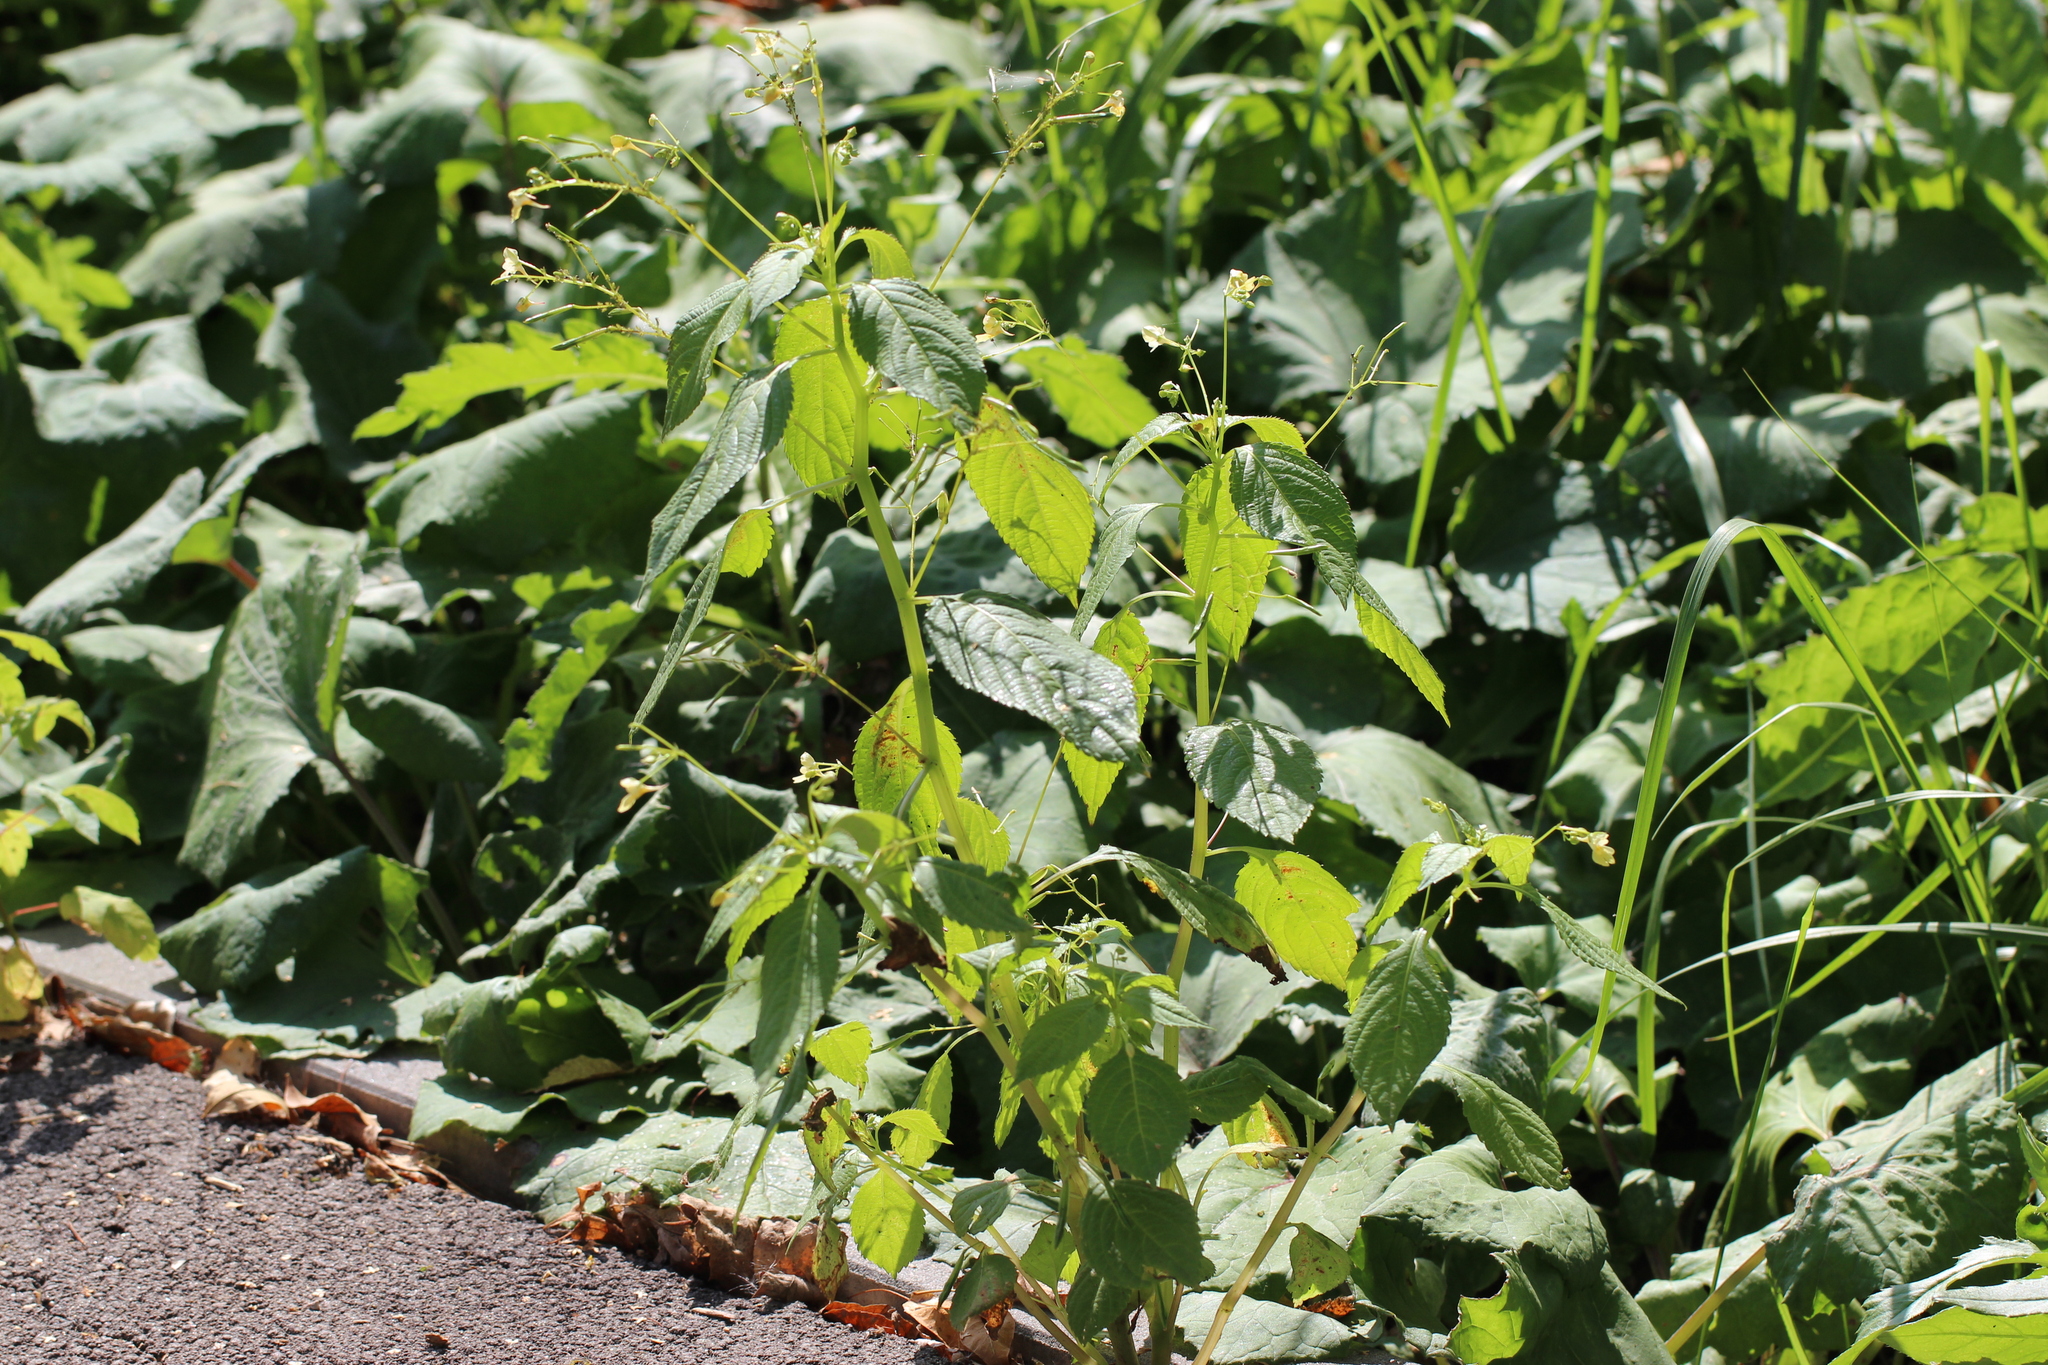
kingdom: Plantae
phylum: Tracheophyta
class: Magnoliopsida
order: Ericales
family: Balsaminaceae
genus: Impatiens
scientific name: Impatiens parviflora
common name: Small balsam
